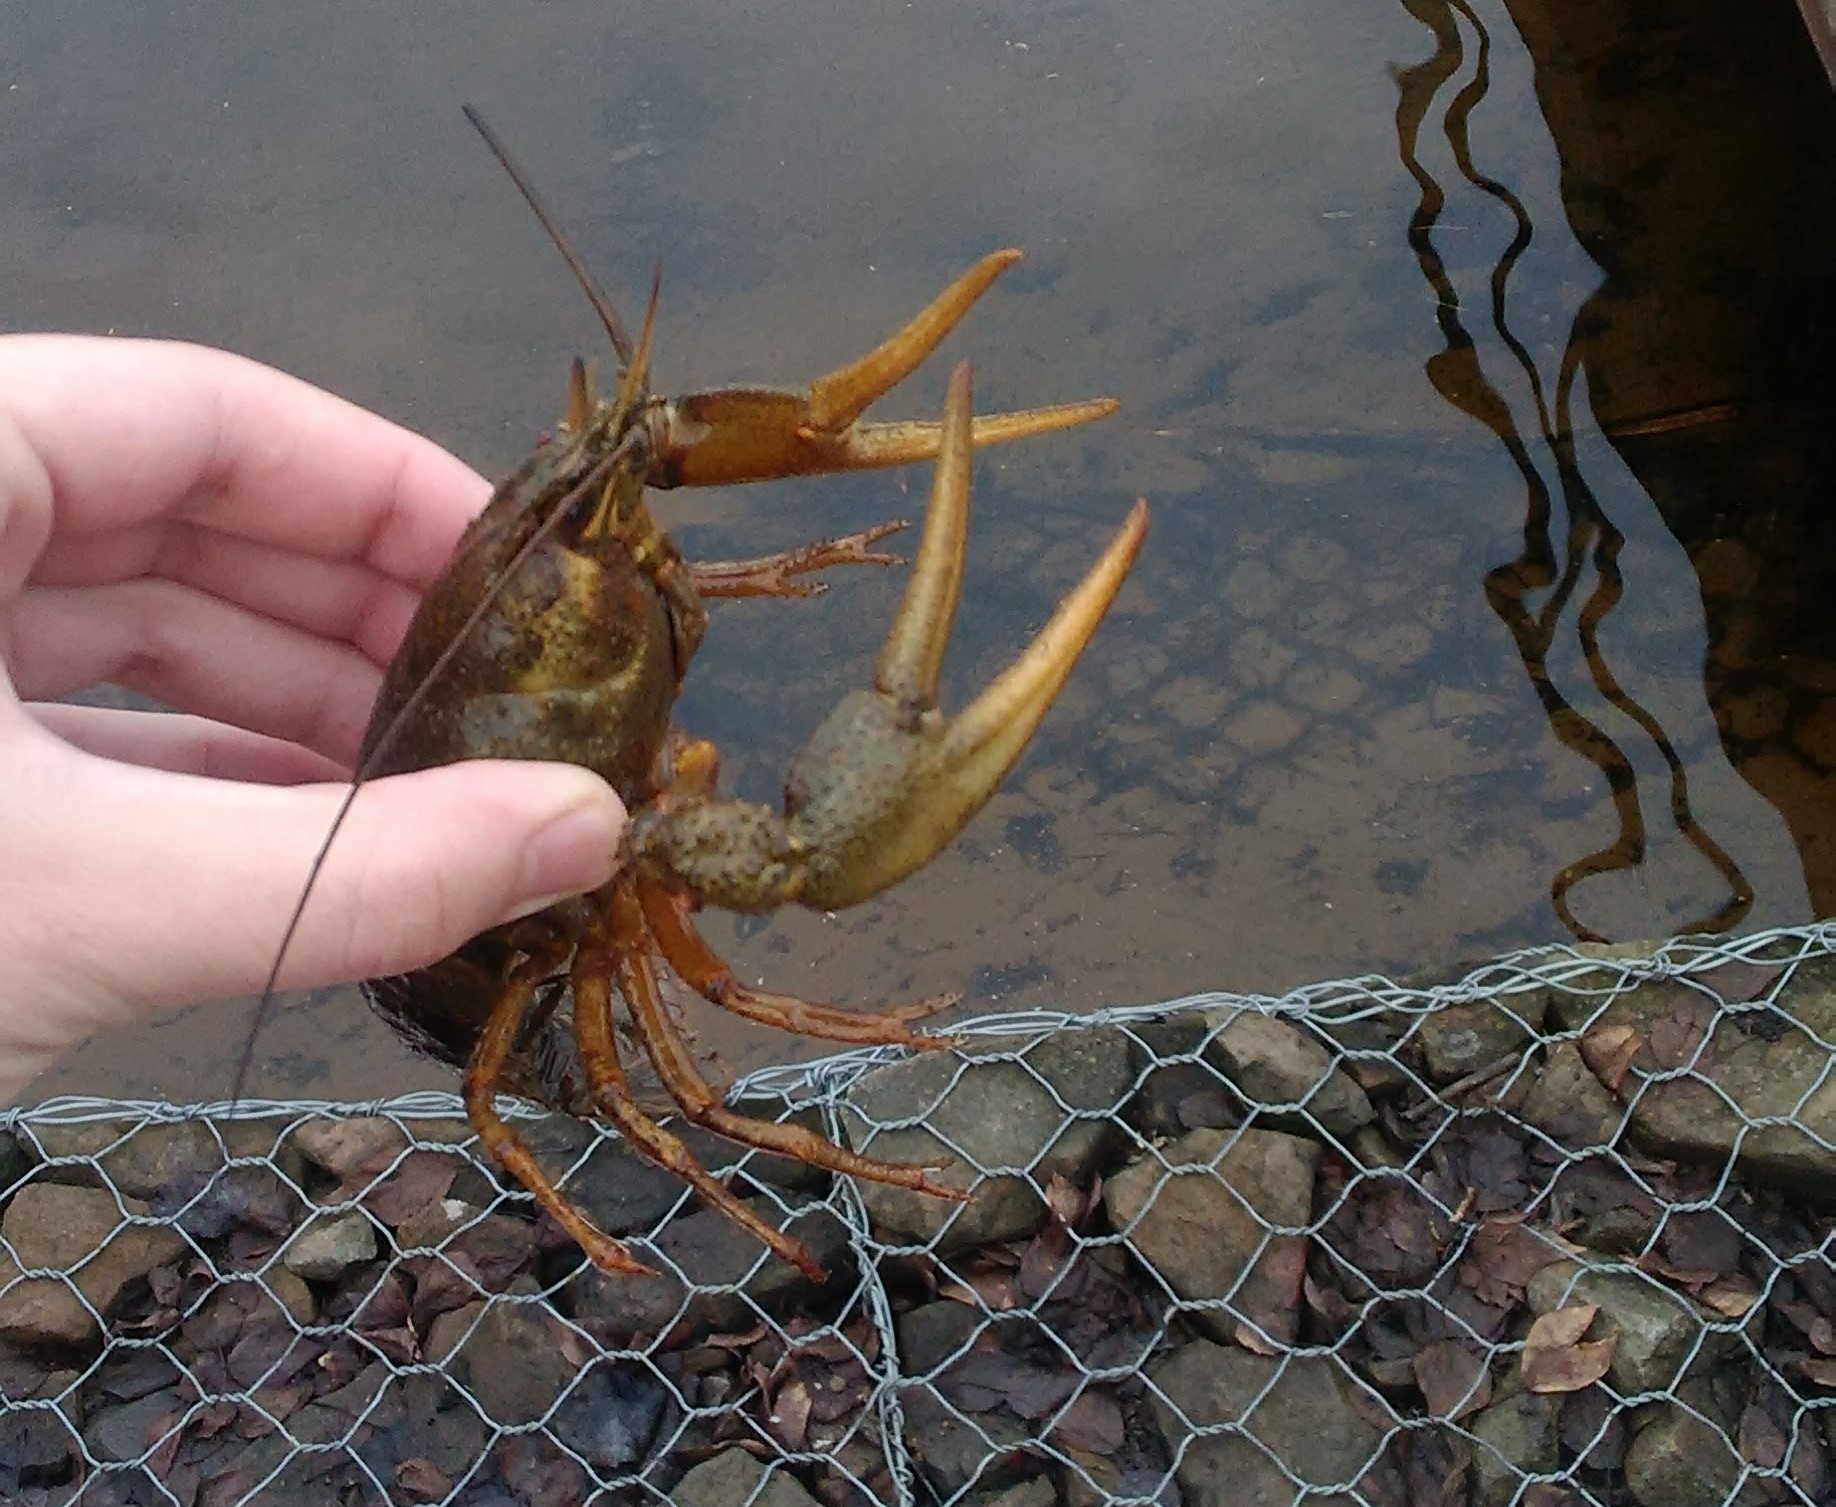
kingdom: Animalia
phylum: Arthropoda
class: Malacostraca
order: Decapoda
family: Astacidae
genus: Pontastacus
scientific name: Pontastacus leptodactylus
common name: Danube crayfish
